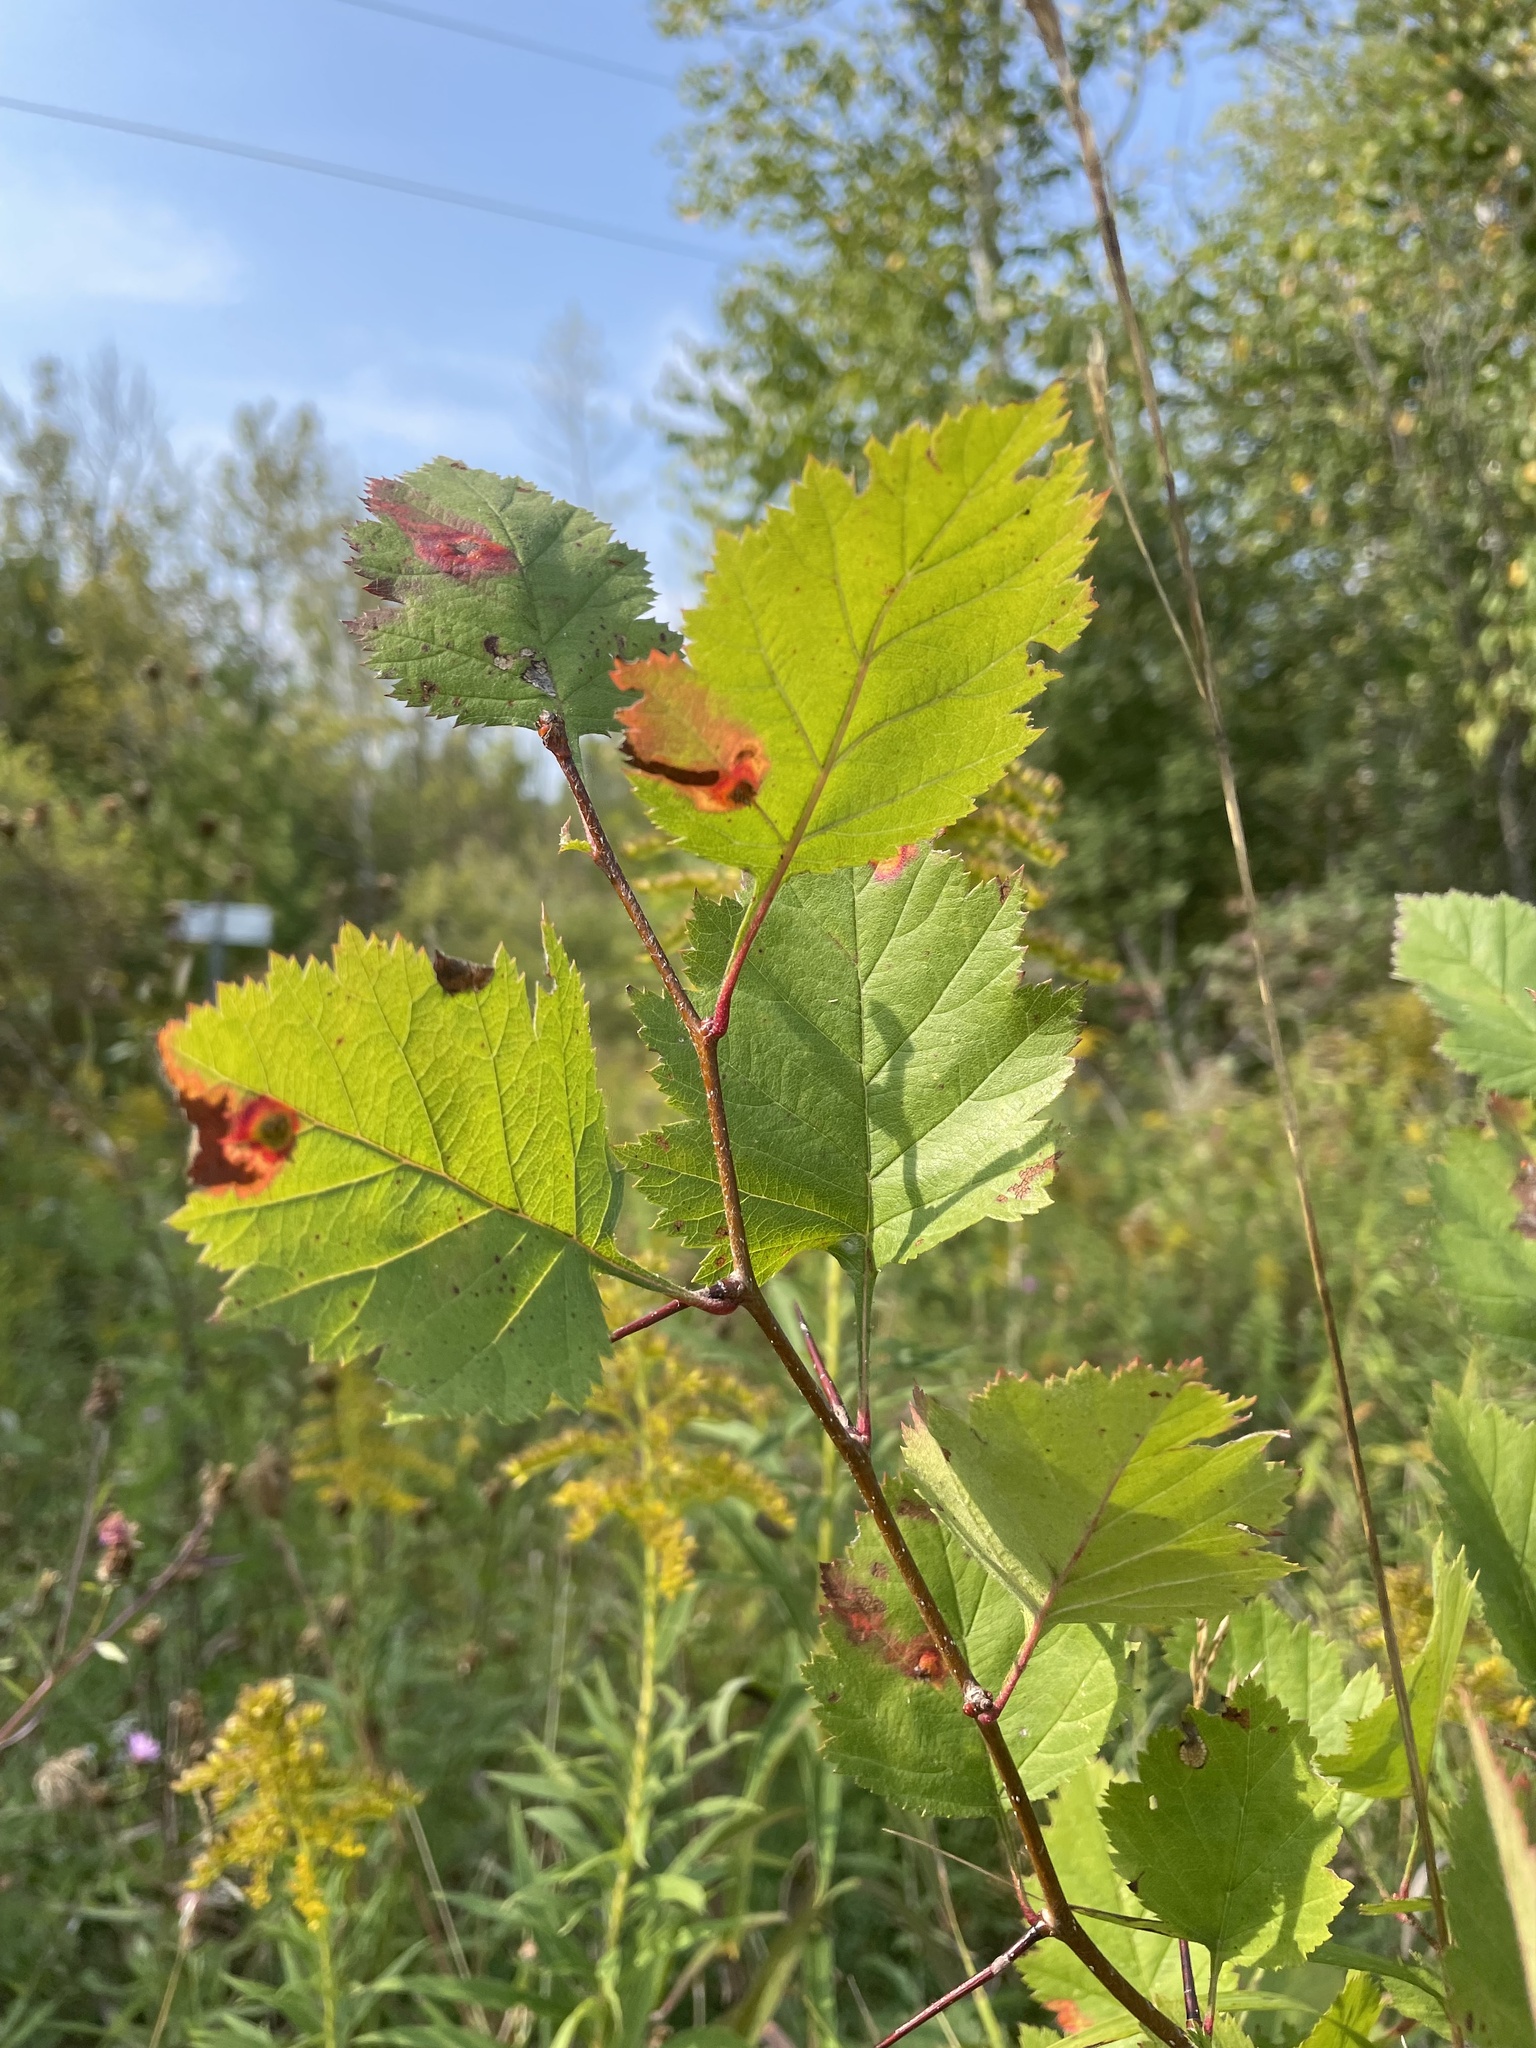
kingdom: Plantae
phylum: Tracheophyta
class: Magnoliopsida
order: Rosales
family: Rosaceae
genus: Crataegus
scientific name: Crataegus
